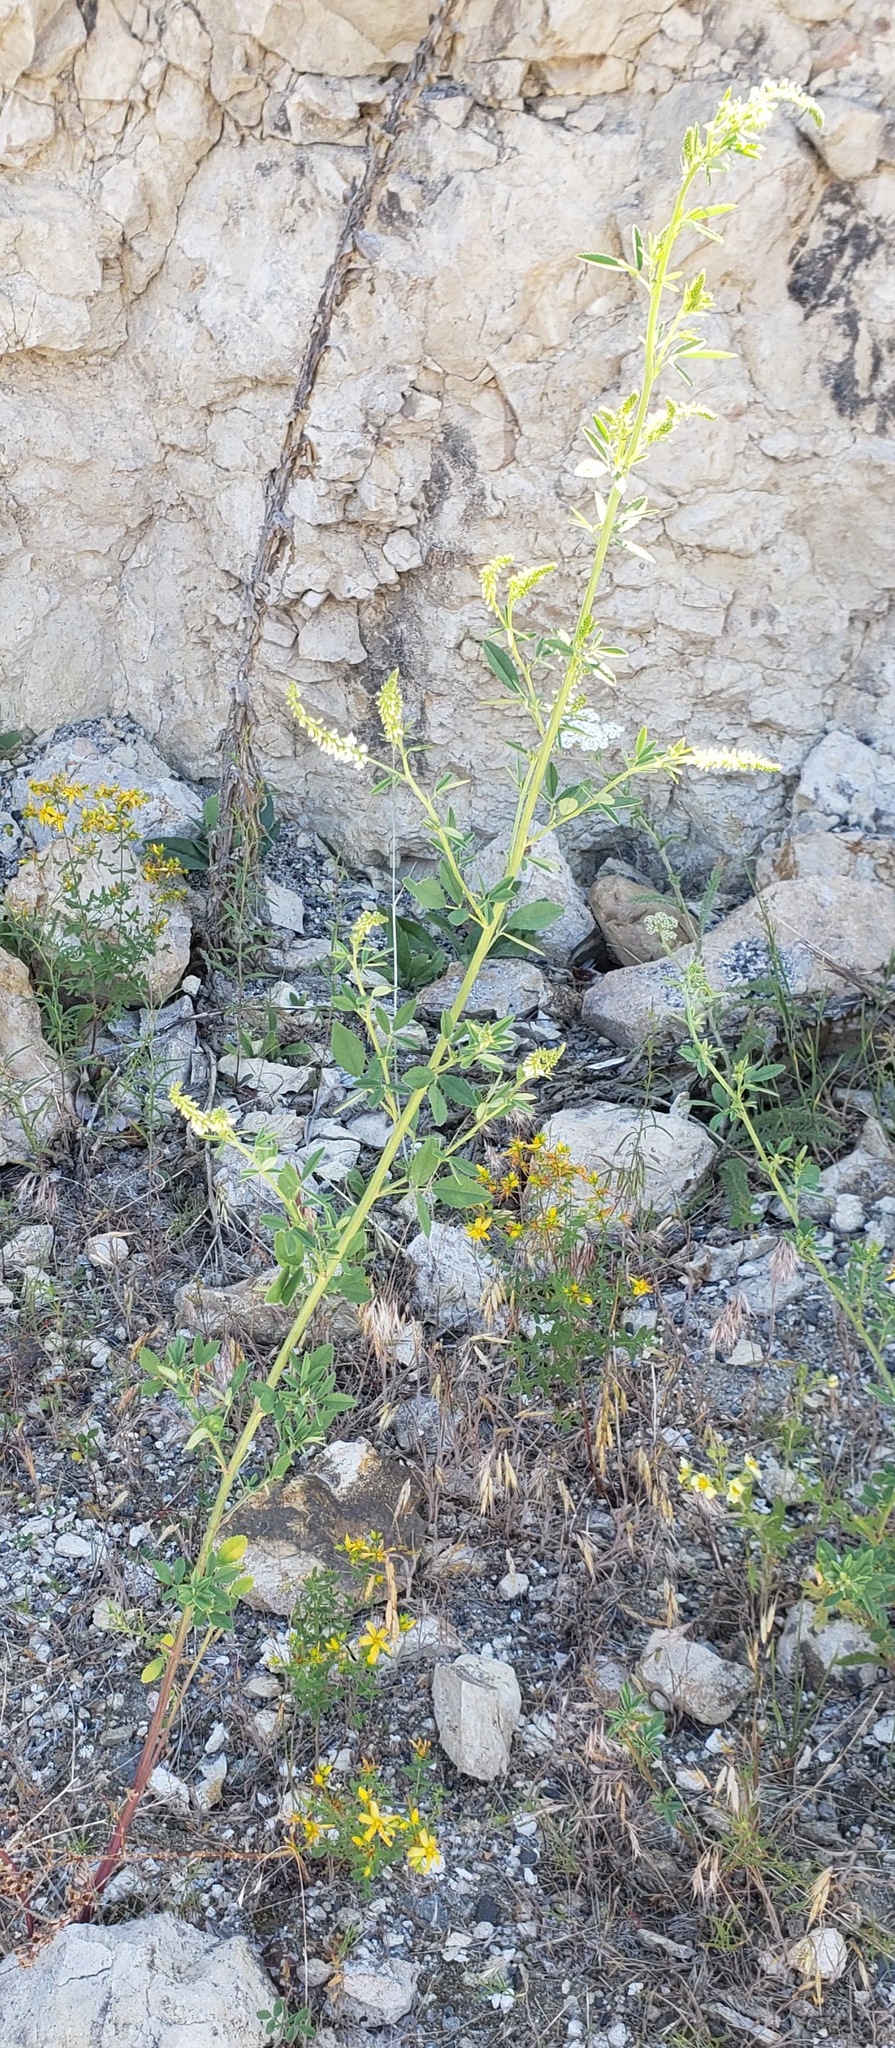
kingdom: Plantae
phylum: Tracheophyta
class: Magnoliopsida
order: Fabales
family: Fabaceae
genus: Melilotus
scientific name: Melilotus albus
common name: White melilot
